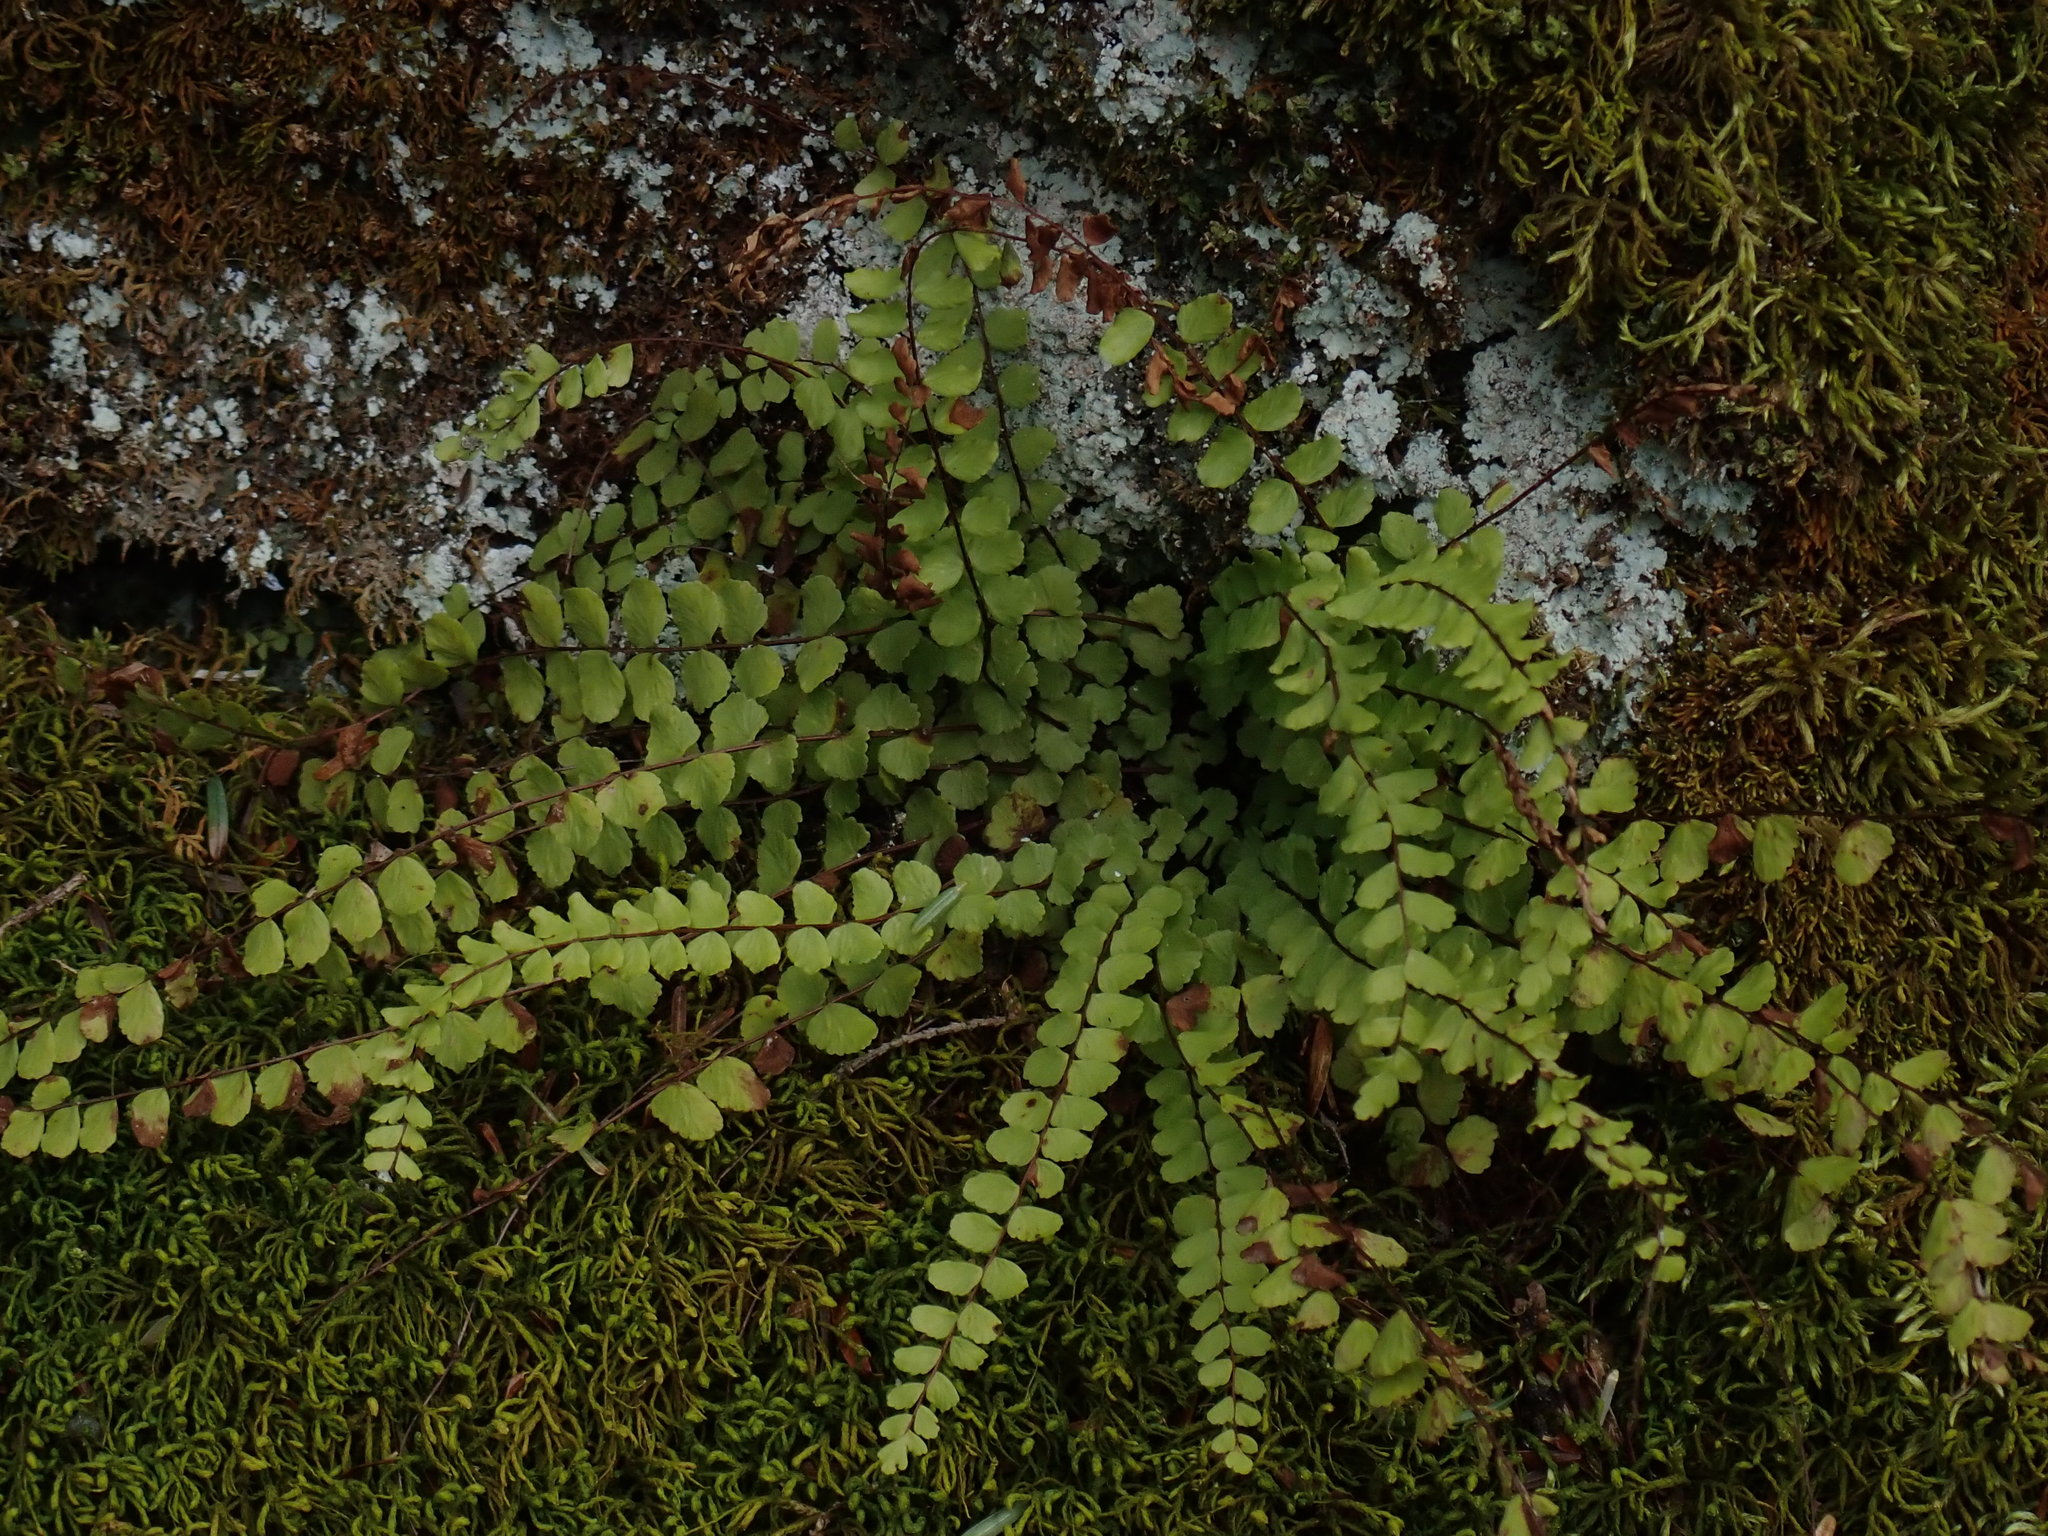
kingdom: Plantae
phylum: Tracheophyta
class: Polypodiopsida
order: Polypodiales
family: Aspleniaceae
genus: Asplenium
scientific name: Asplenium trichomanes
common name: Maidenhair spleenwort
